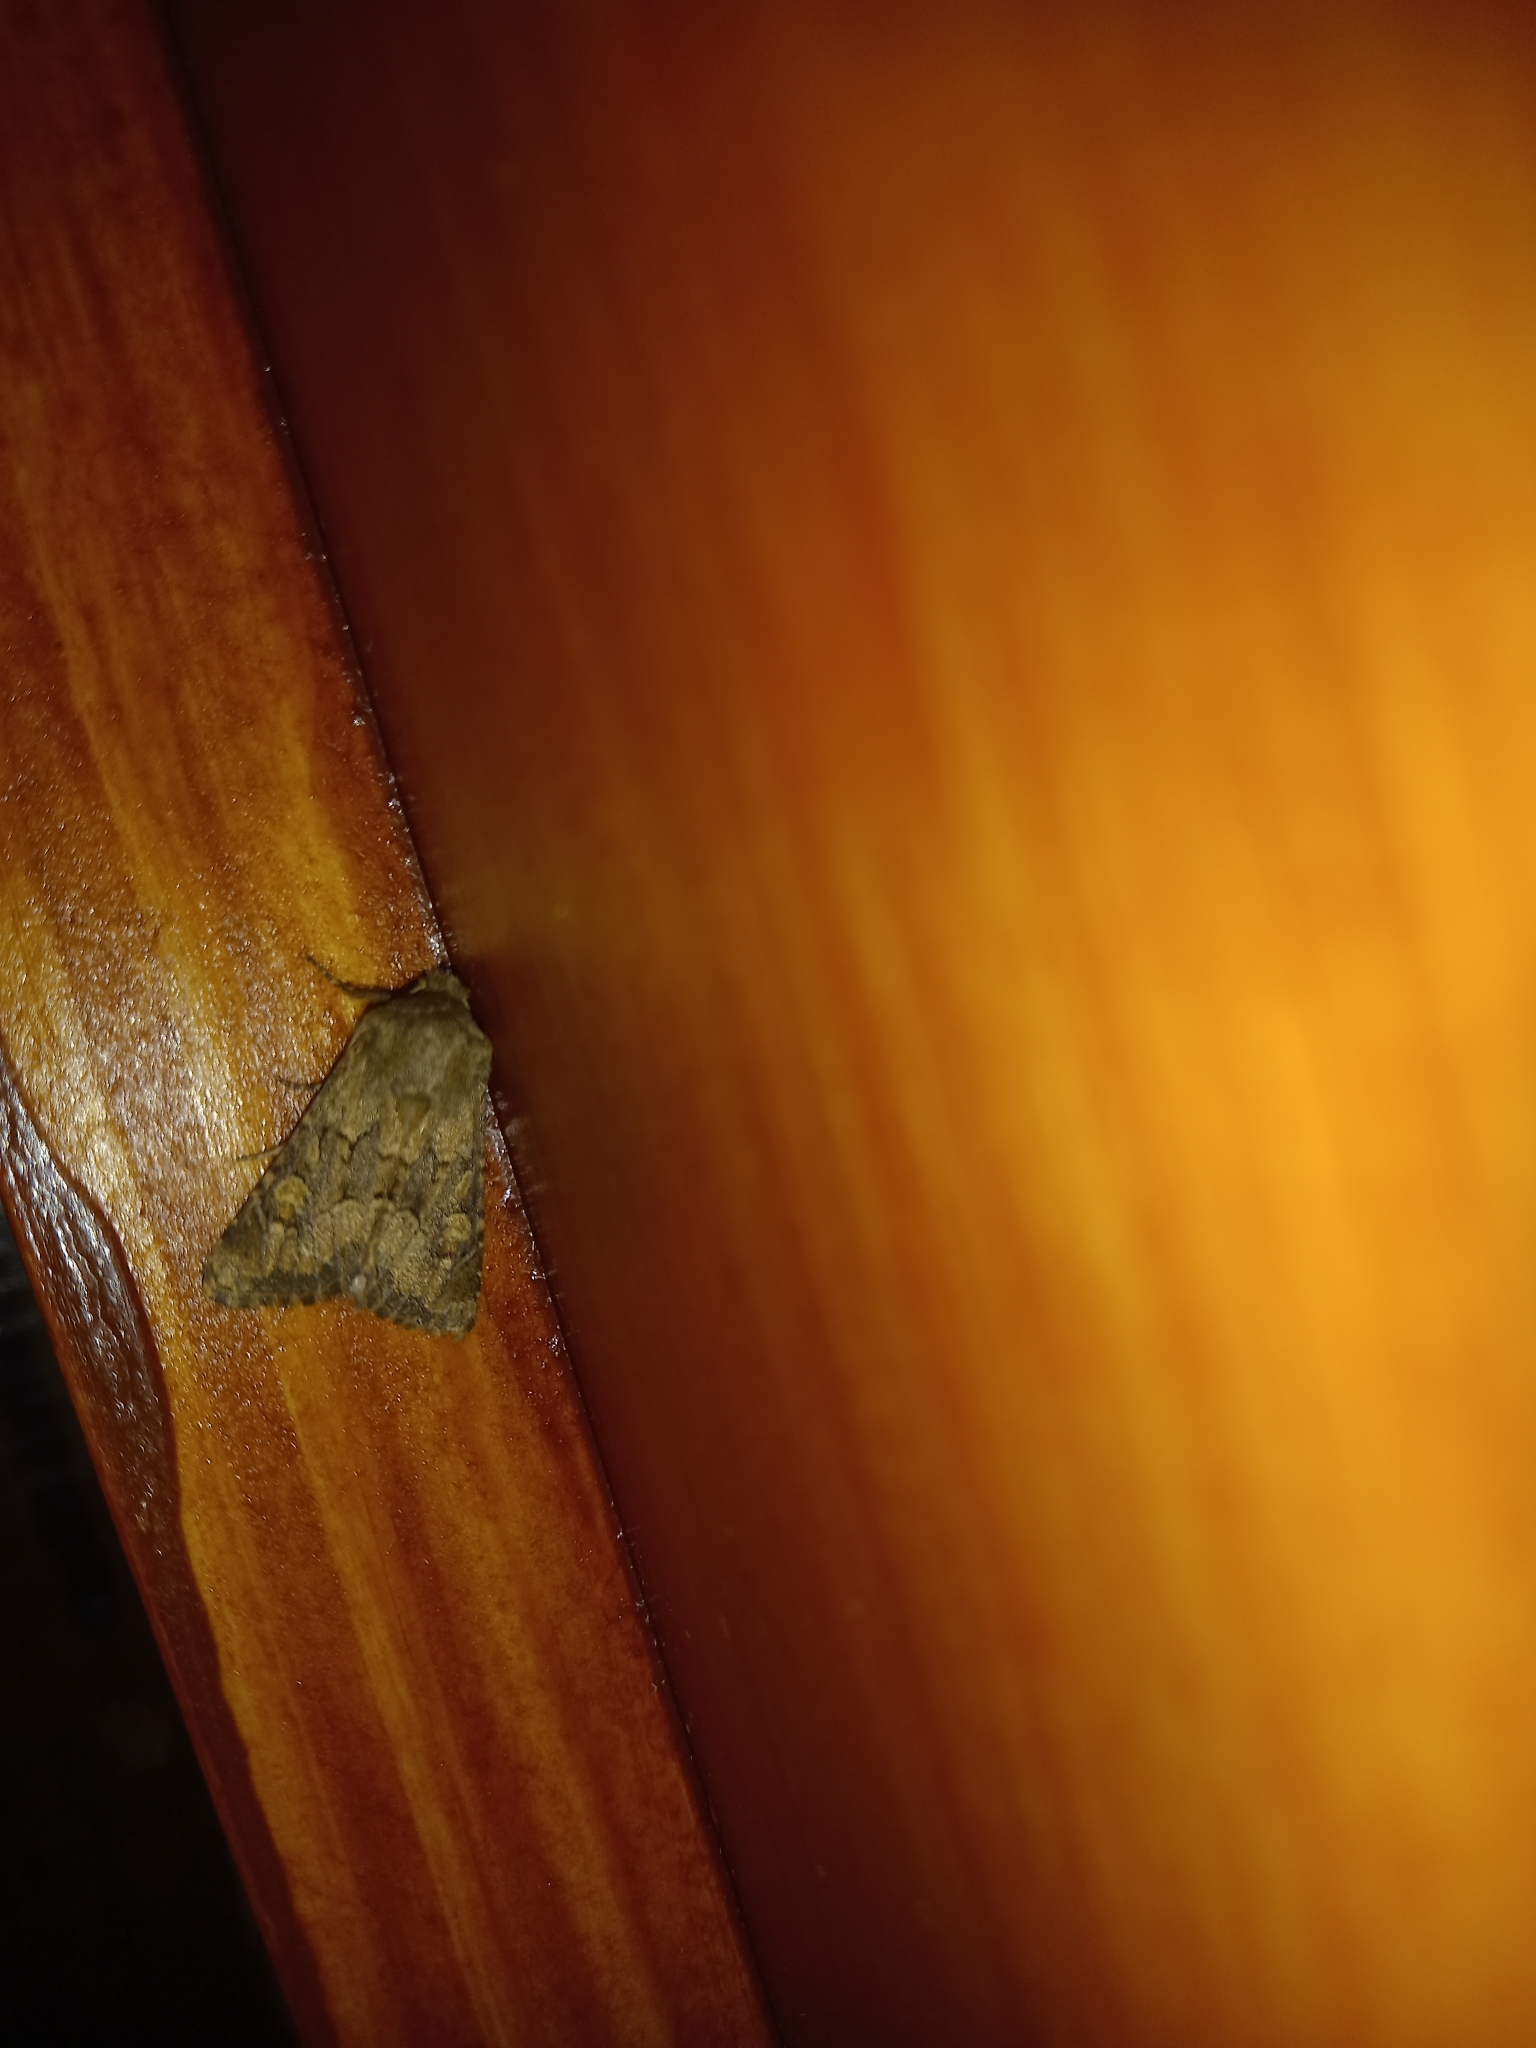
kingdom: Animalia
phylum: Arthropoda
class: Insecta
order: Lepidoptera
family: Noctuidae
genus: Luperina
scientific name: Luperina testacea
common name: Flounced rustic
